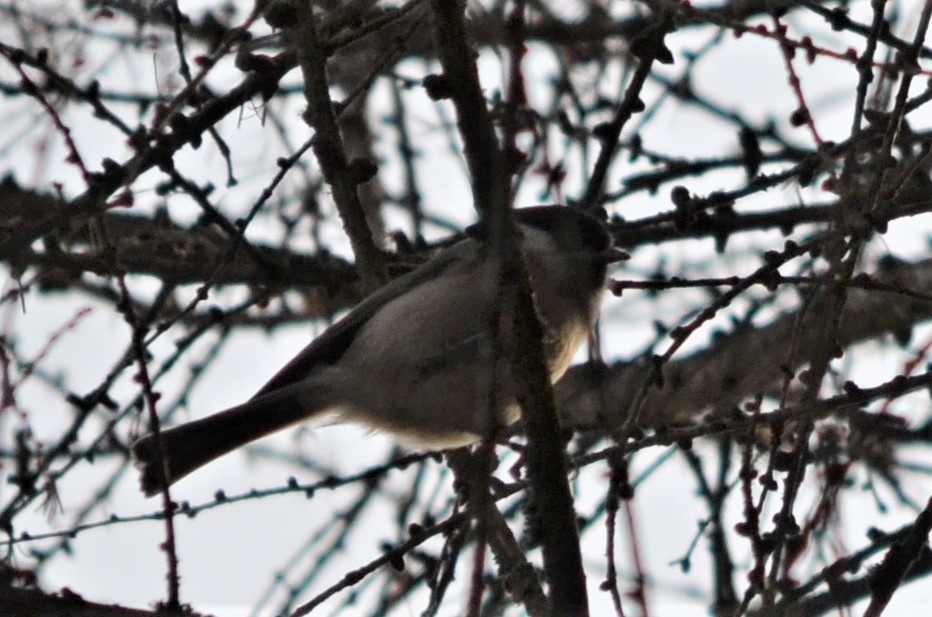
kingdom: Animalia
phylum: Chordata
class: Aves
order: Passeriformes
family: Paridae
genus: Poecile
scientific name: Poecile palustris
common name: Marsh tit
